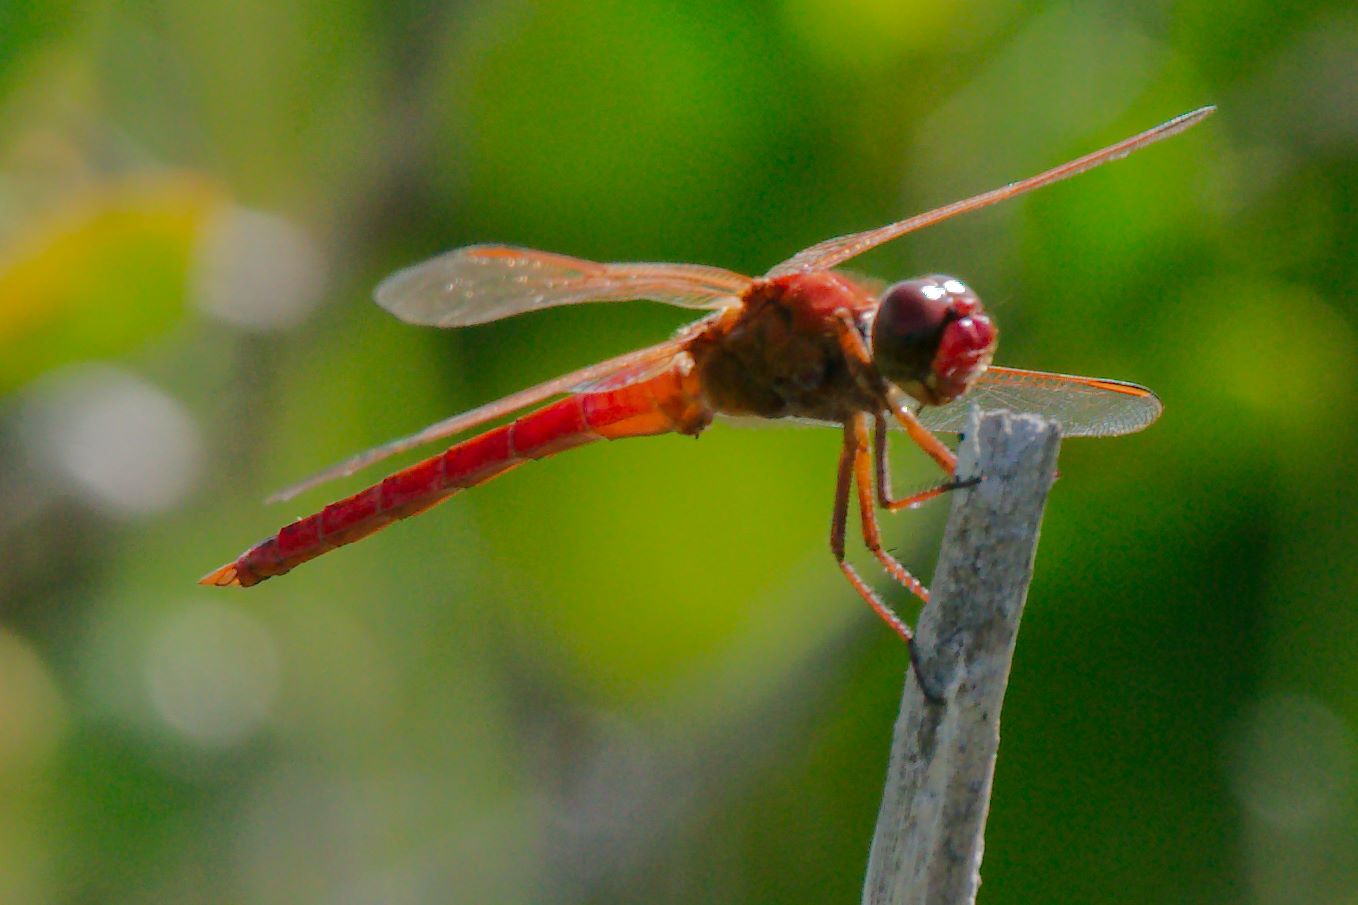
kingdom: Animalia
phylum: Arthropoda
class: Insecta
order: Odonata
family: Libellulidae
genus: Libellula
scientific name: Libellula needhami
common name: Needham's skimmer
